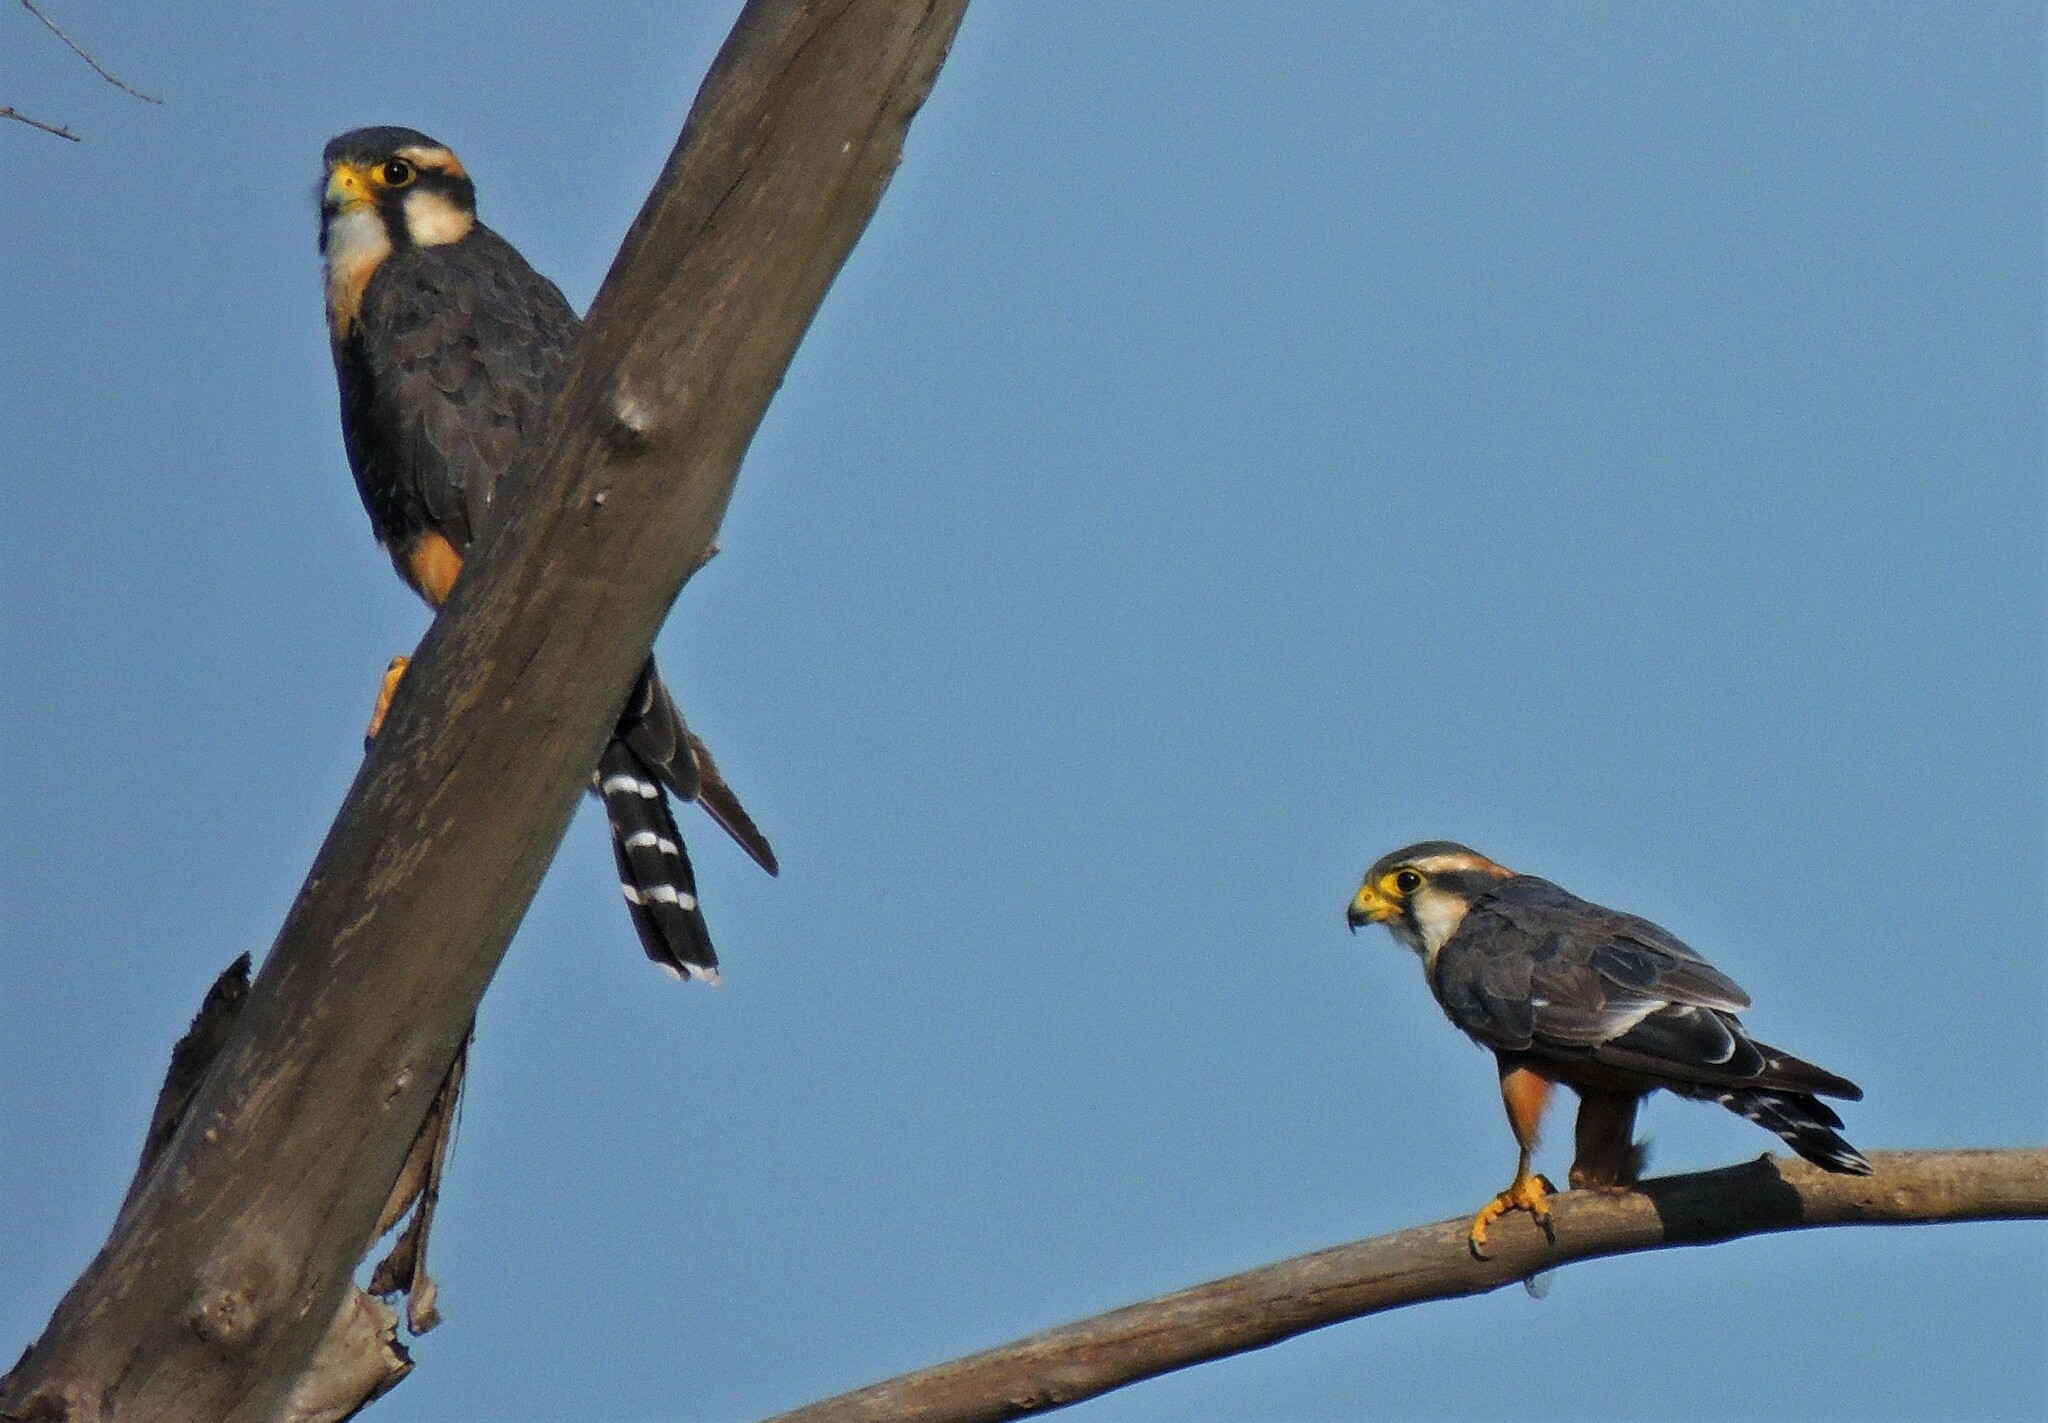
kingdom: Animalia
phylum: Chordata
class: Aves
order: Falconiformes
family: Falconidae
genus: Falco
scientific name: Falco femoralis
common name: Aplomado falcon
